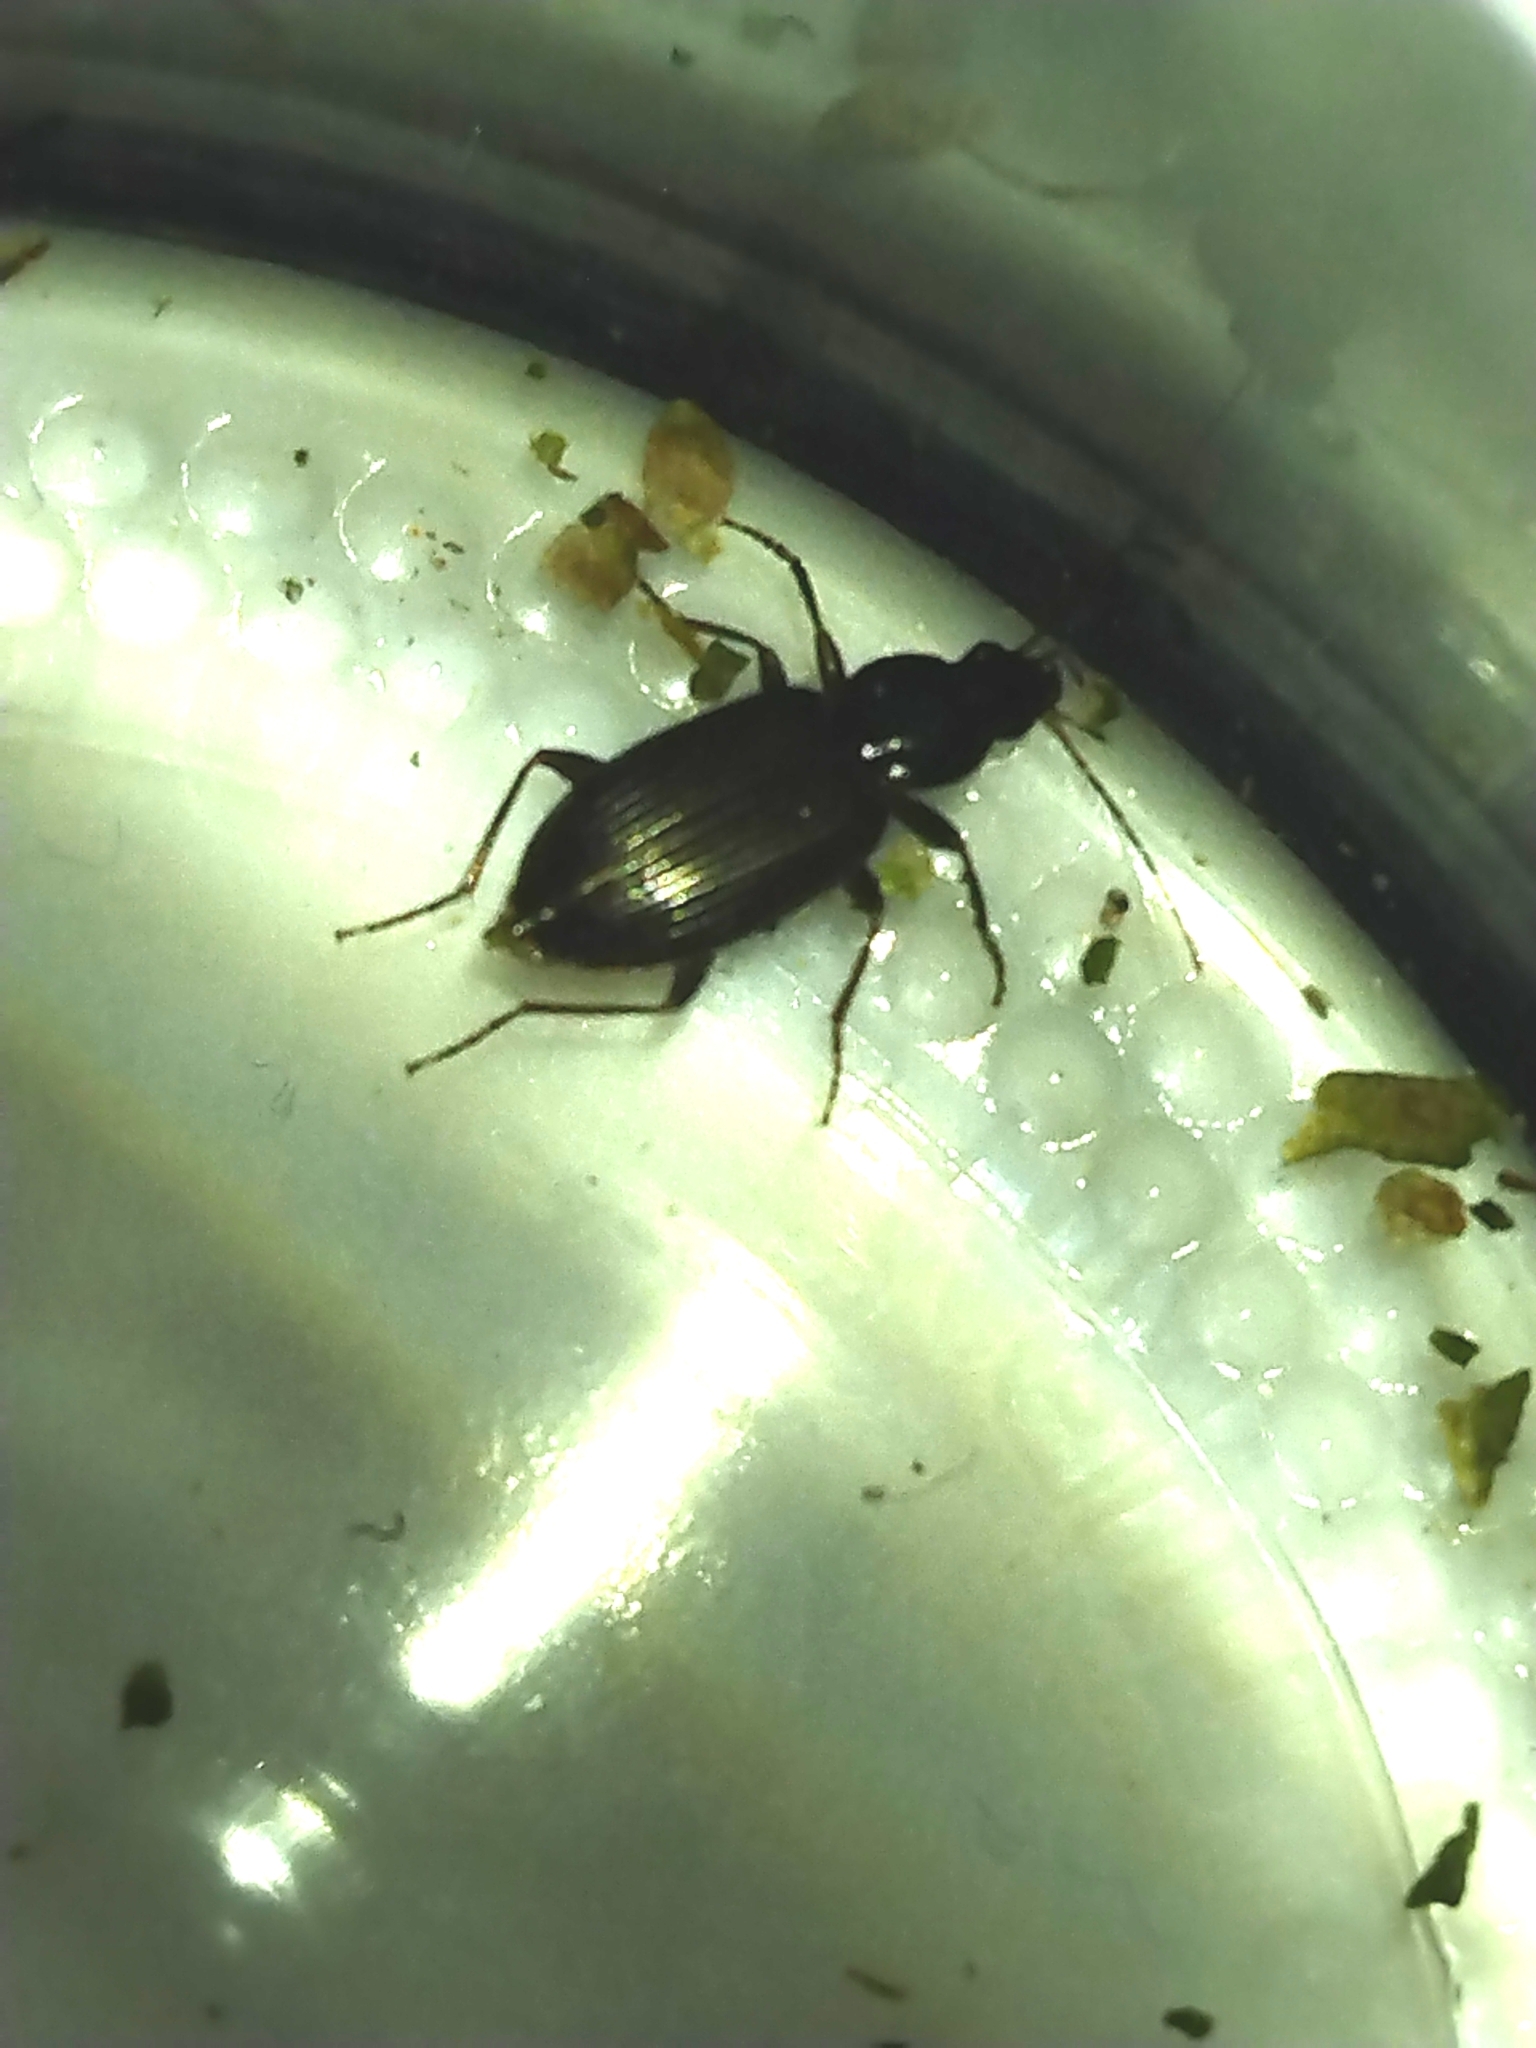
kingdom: Animalia
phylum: Arthropoda
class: Insecta
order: Coleoptera
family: Carabidae
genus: Agonum
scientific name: Agonum punctiforme
